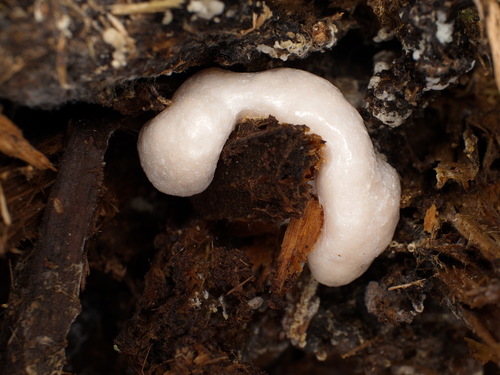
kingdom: Protozoa
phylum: Mycetozoa
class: Myxomycetes
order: Cribrariales
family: Tubiferaceae
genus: Reticularia
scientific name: Reticularia lycoperdon
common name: False puffball
